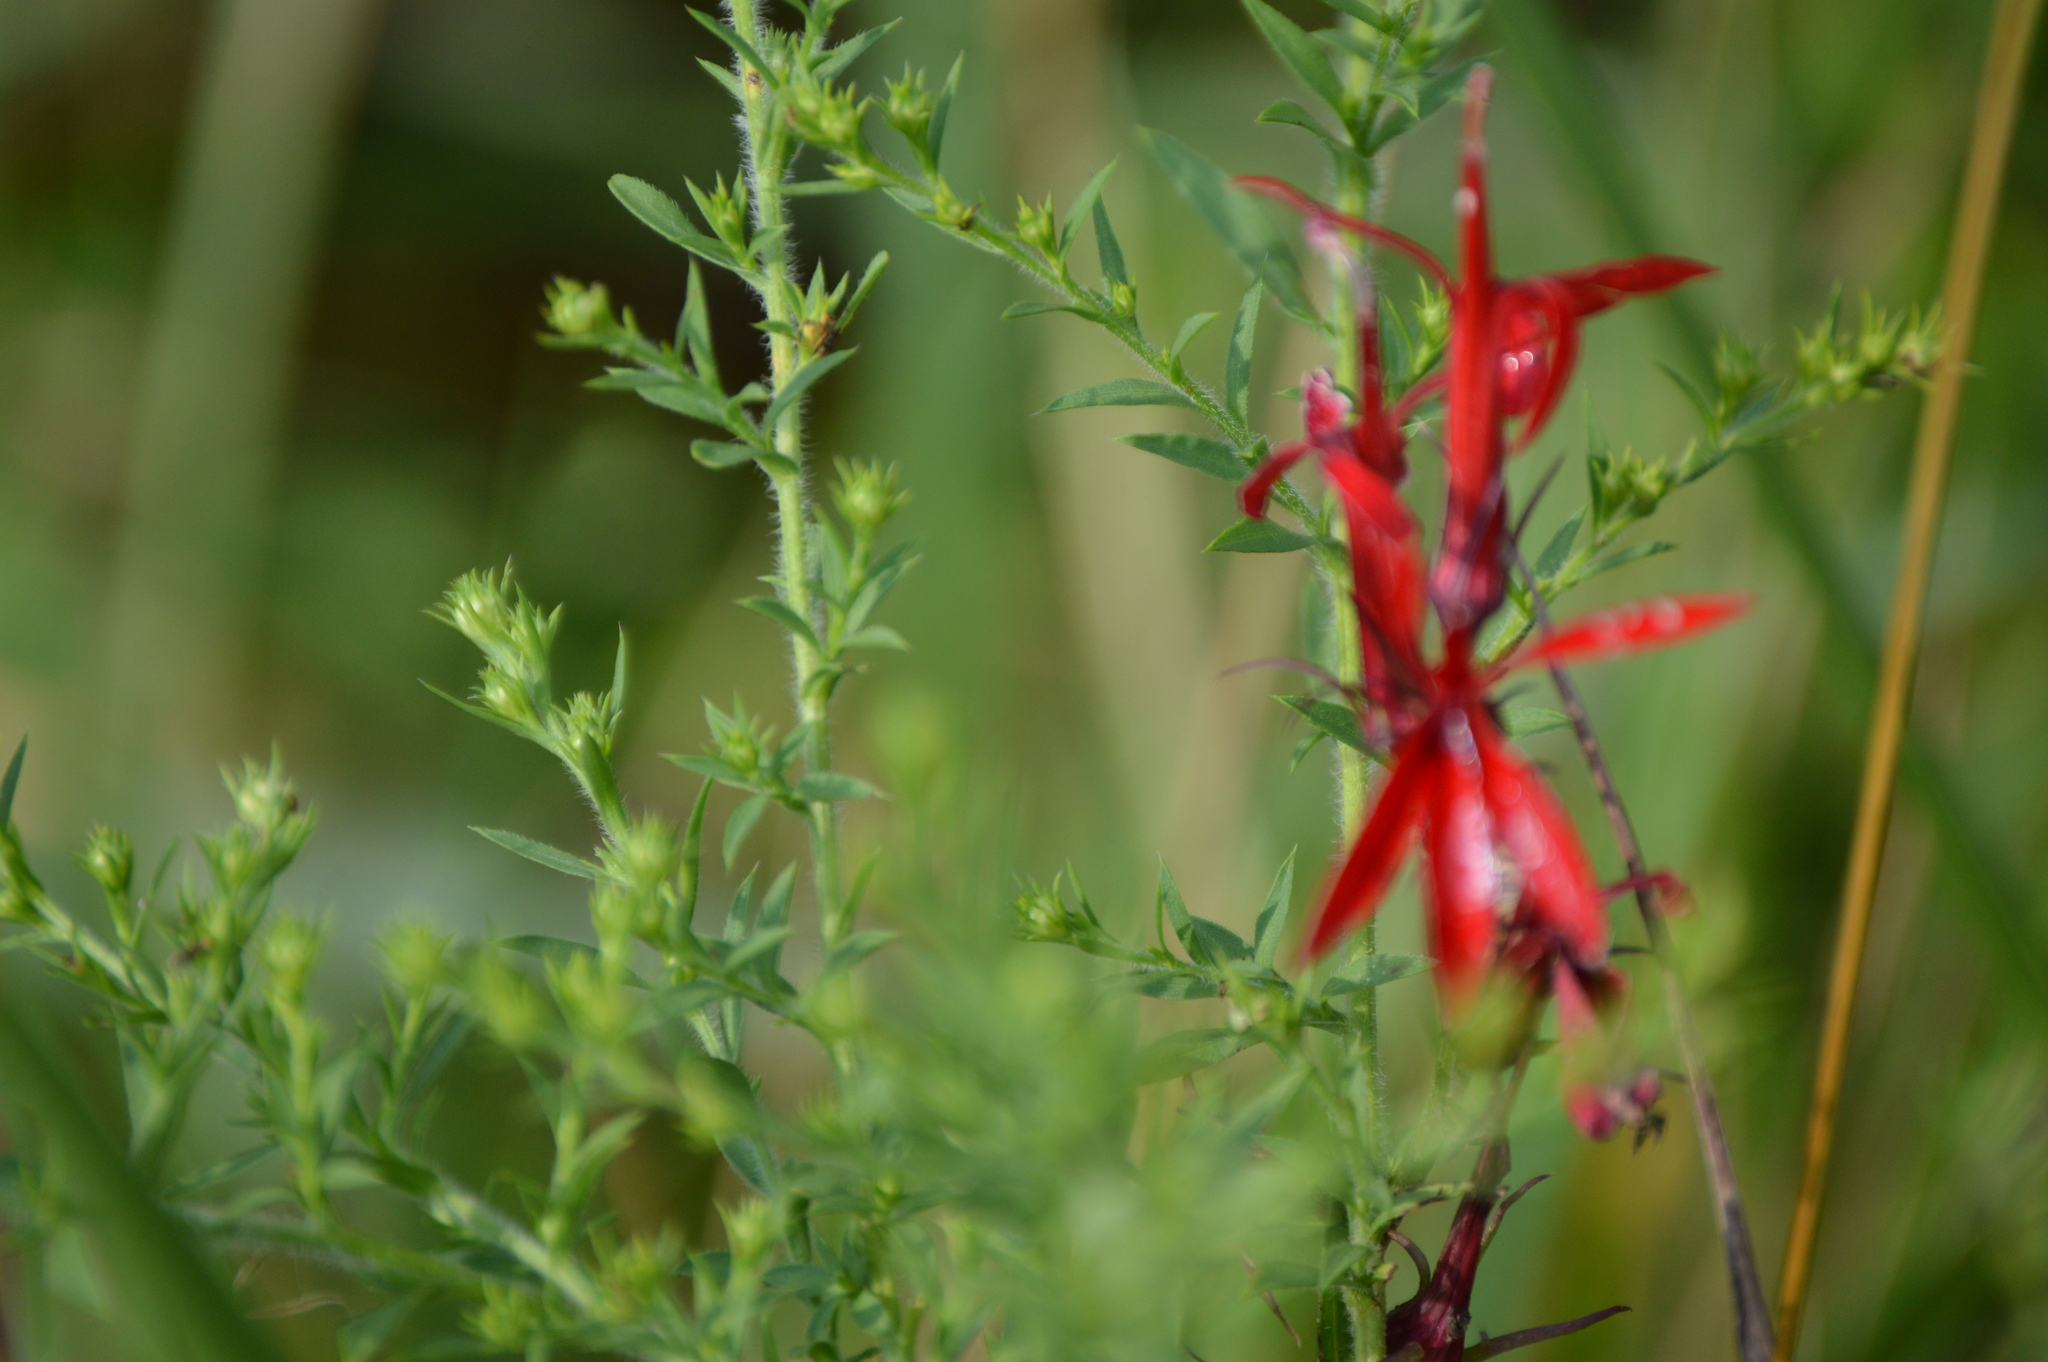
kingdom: Plantae
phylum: Tracheophyta
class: Magnoliopsida
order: Asterales
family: Campanulaceae
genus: Lobelia
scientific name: Lobelia cardinalis
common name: Cardinal flower
